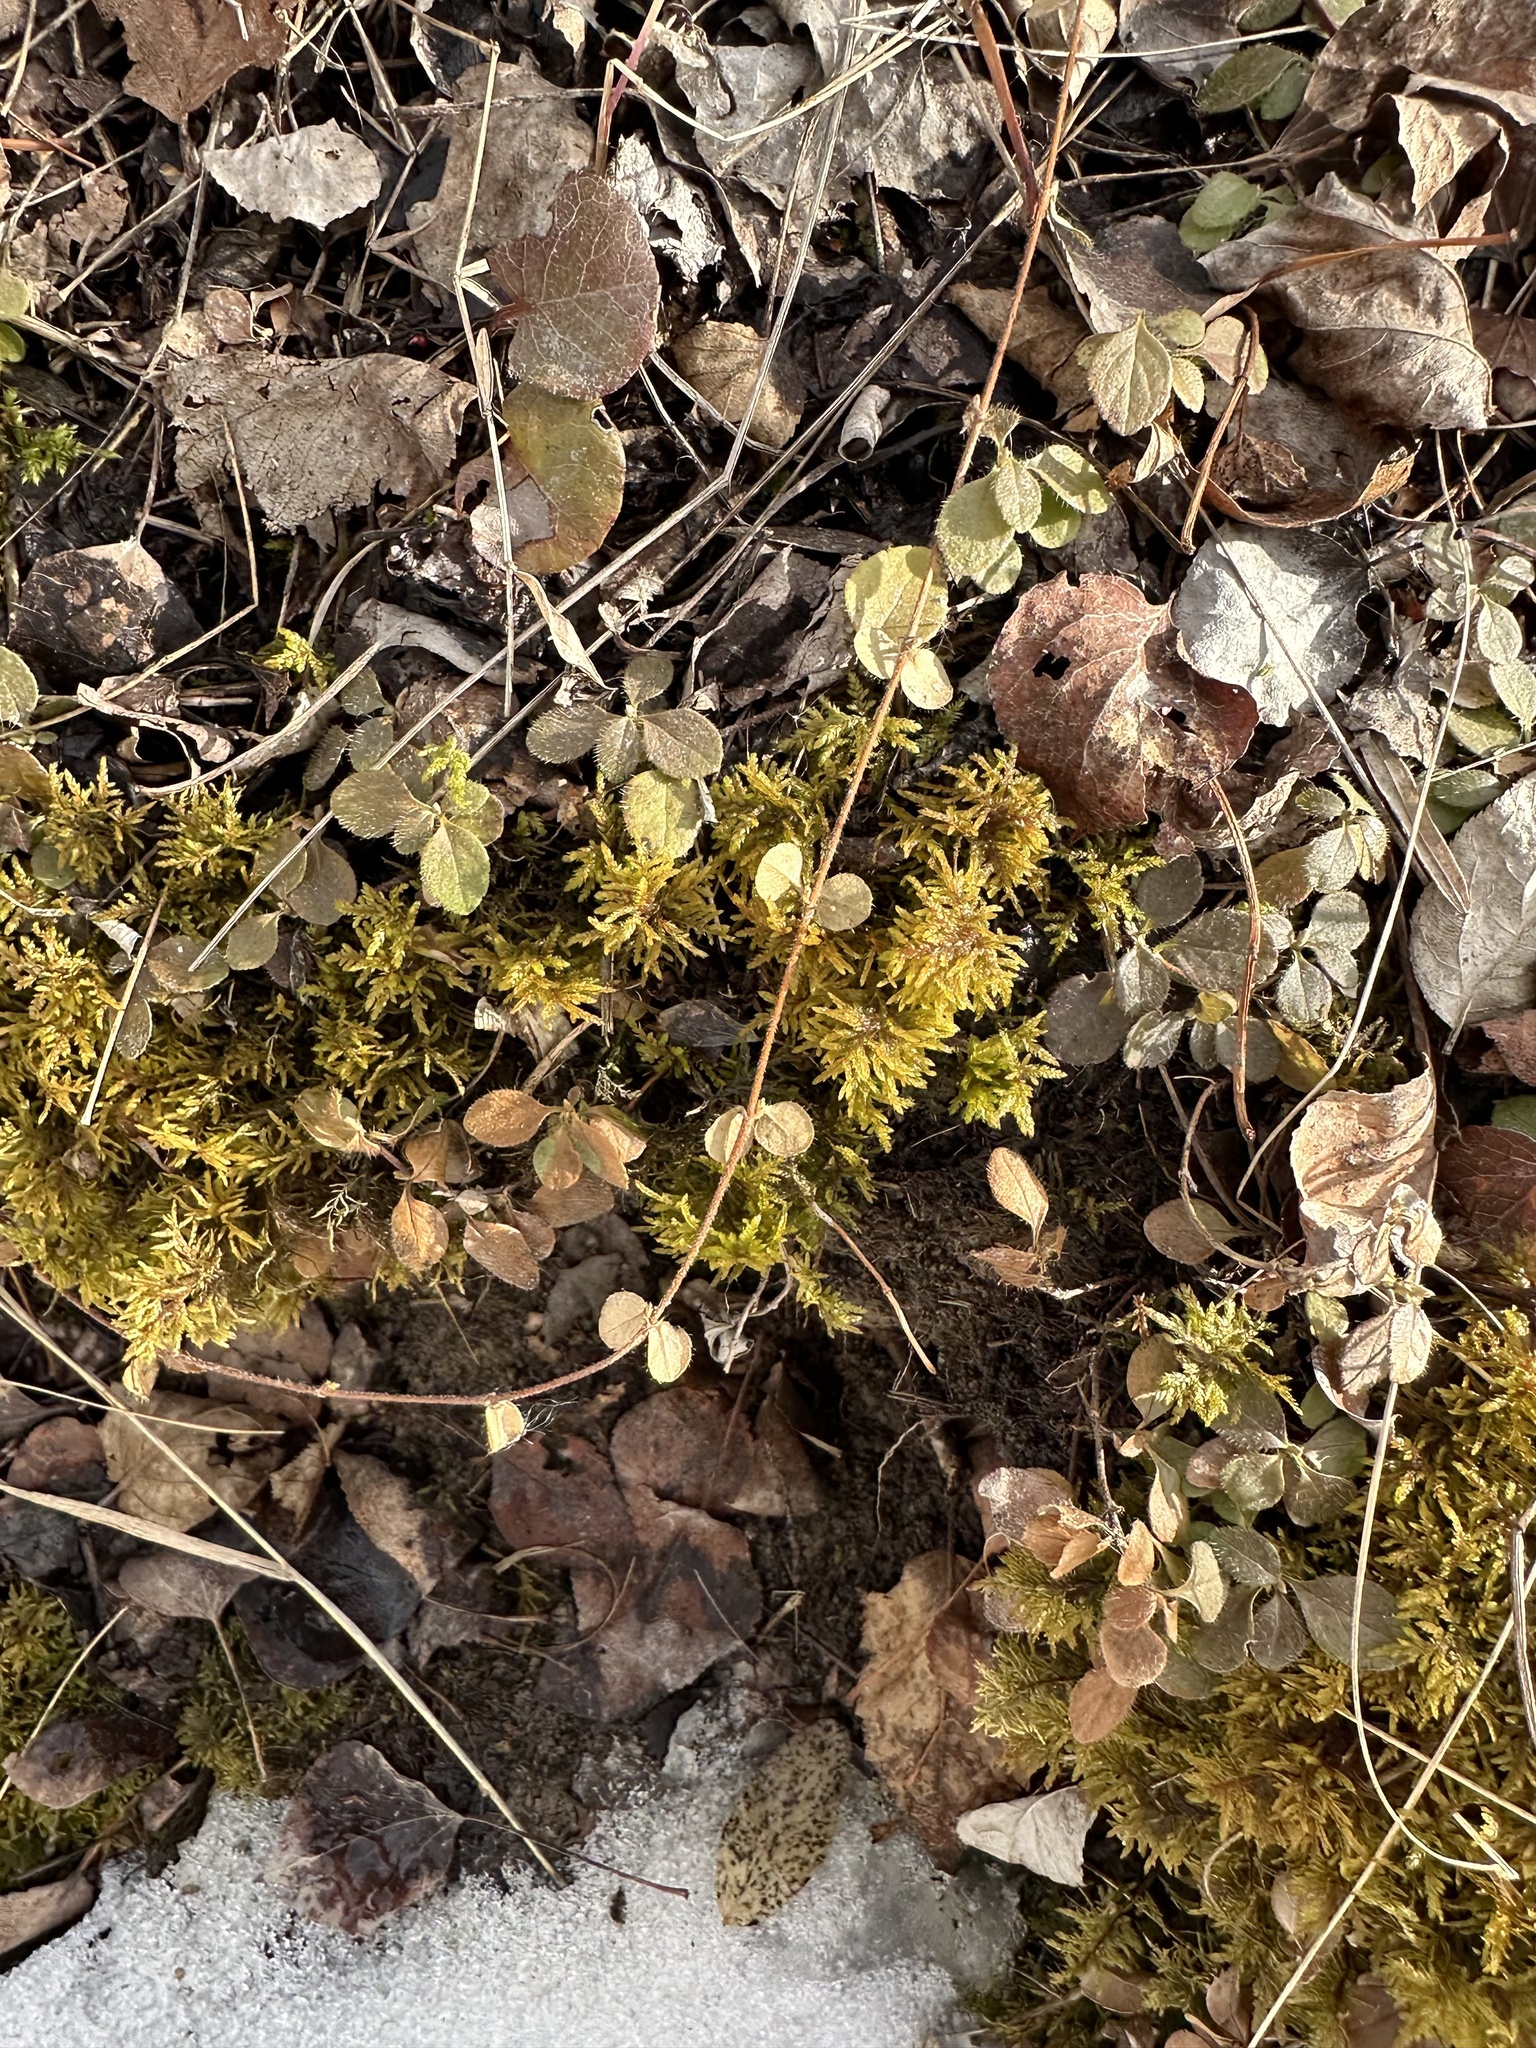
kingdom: Plantae
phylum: Tracheophyta
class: Magnoliopsida
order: Dipsacales
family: Caprifoliaceae
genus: Linnaea
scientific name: Linnaea borealis
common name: Twinflower
